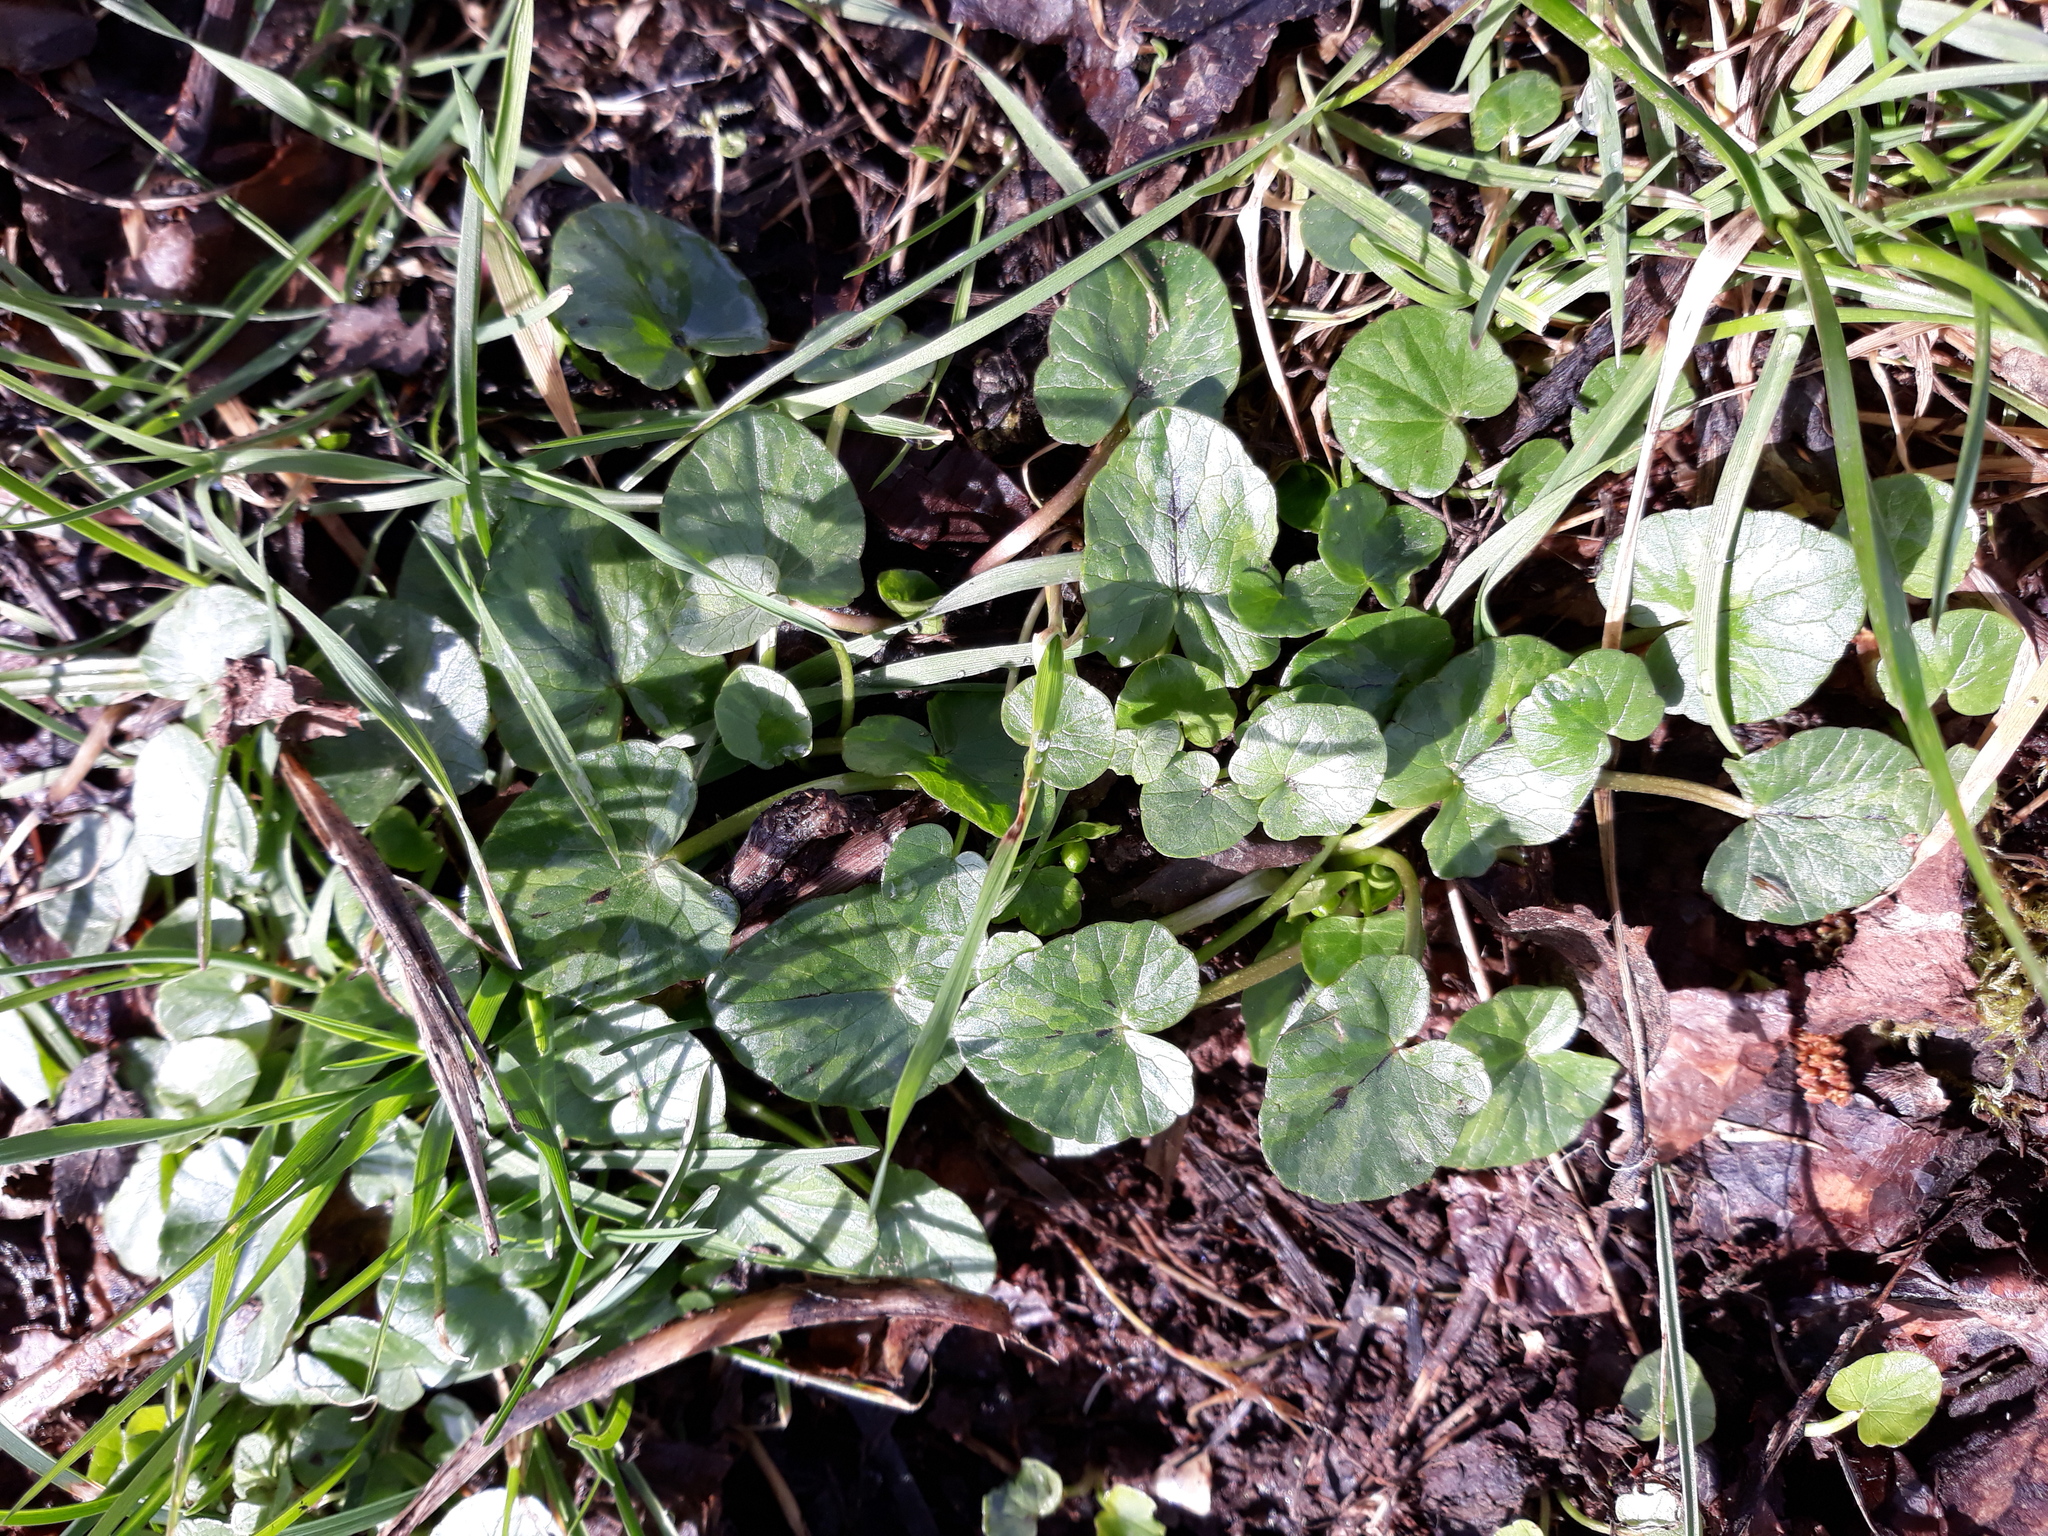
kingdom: Plantae
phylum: Tracheophyta
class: Magnoliopsida
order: Ranunculales
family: Ranunculaceae
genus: Ficaria
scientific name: Ficaria verna
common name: Lesser celandine
